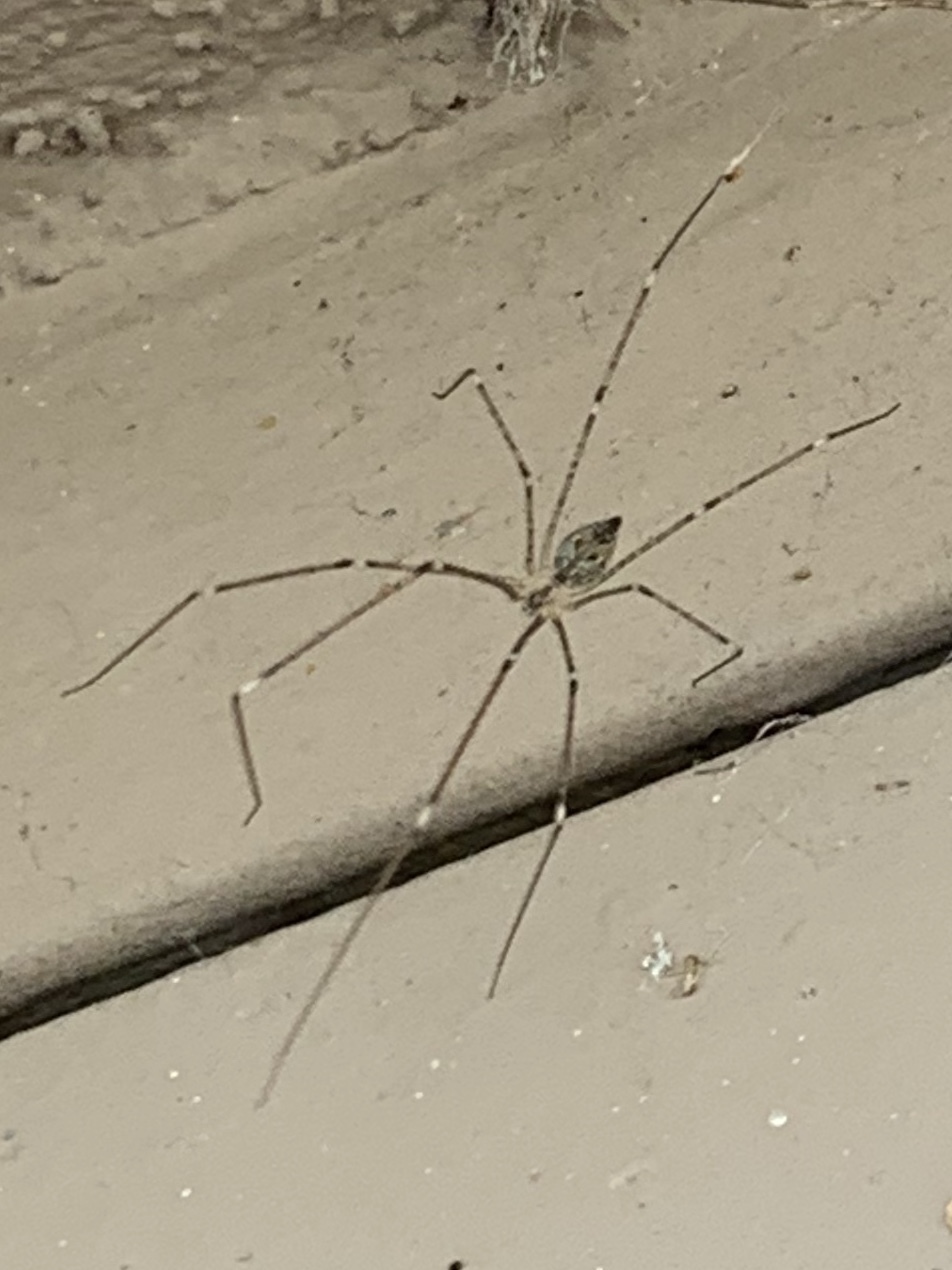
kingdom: Animalia
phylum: Arthropoda
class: Arachnida
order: Araneae
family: Pholcidae
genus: Crossopriza
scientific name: Crossopriza lyoni
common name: Cellar spiders
